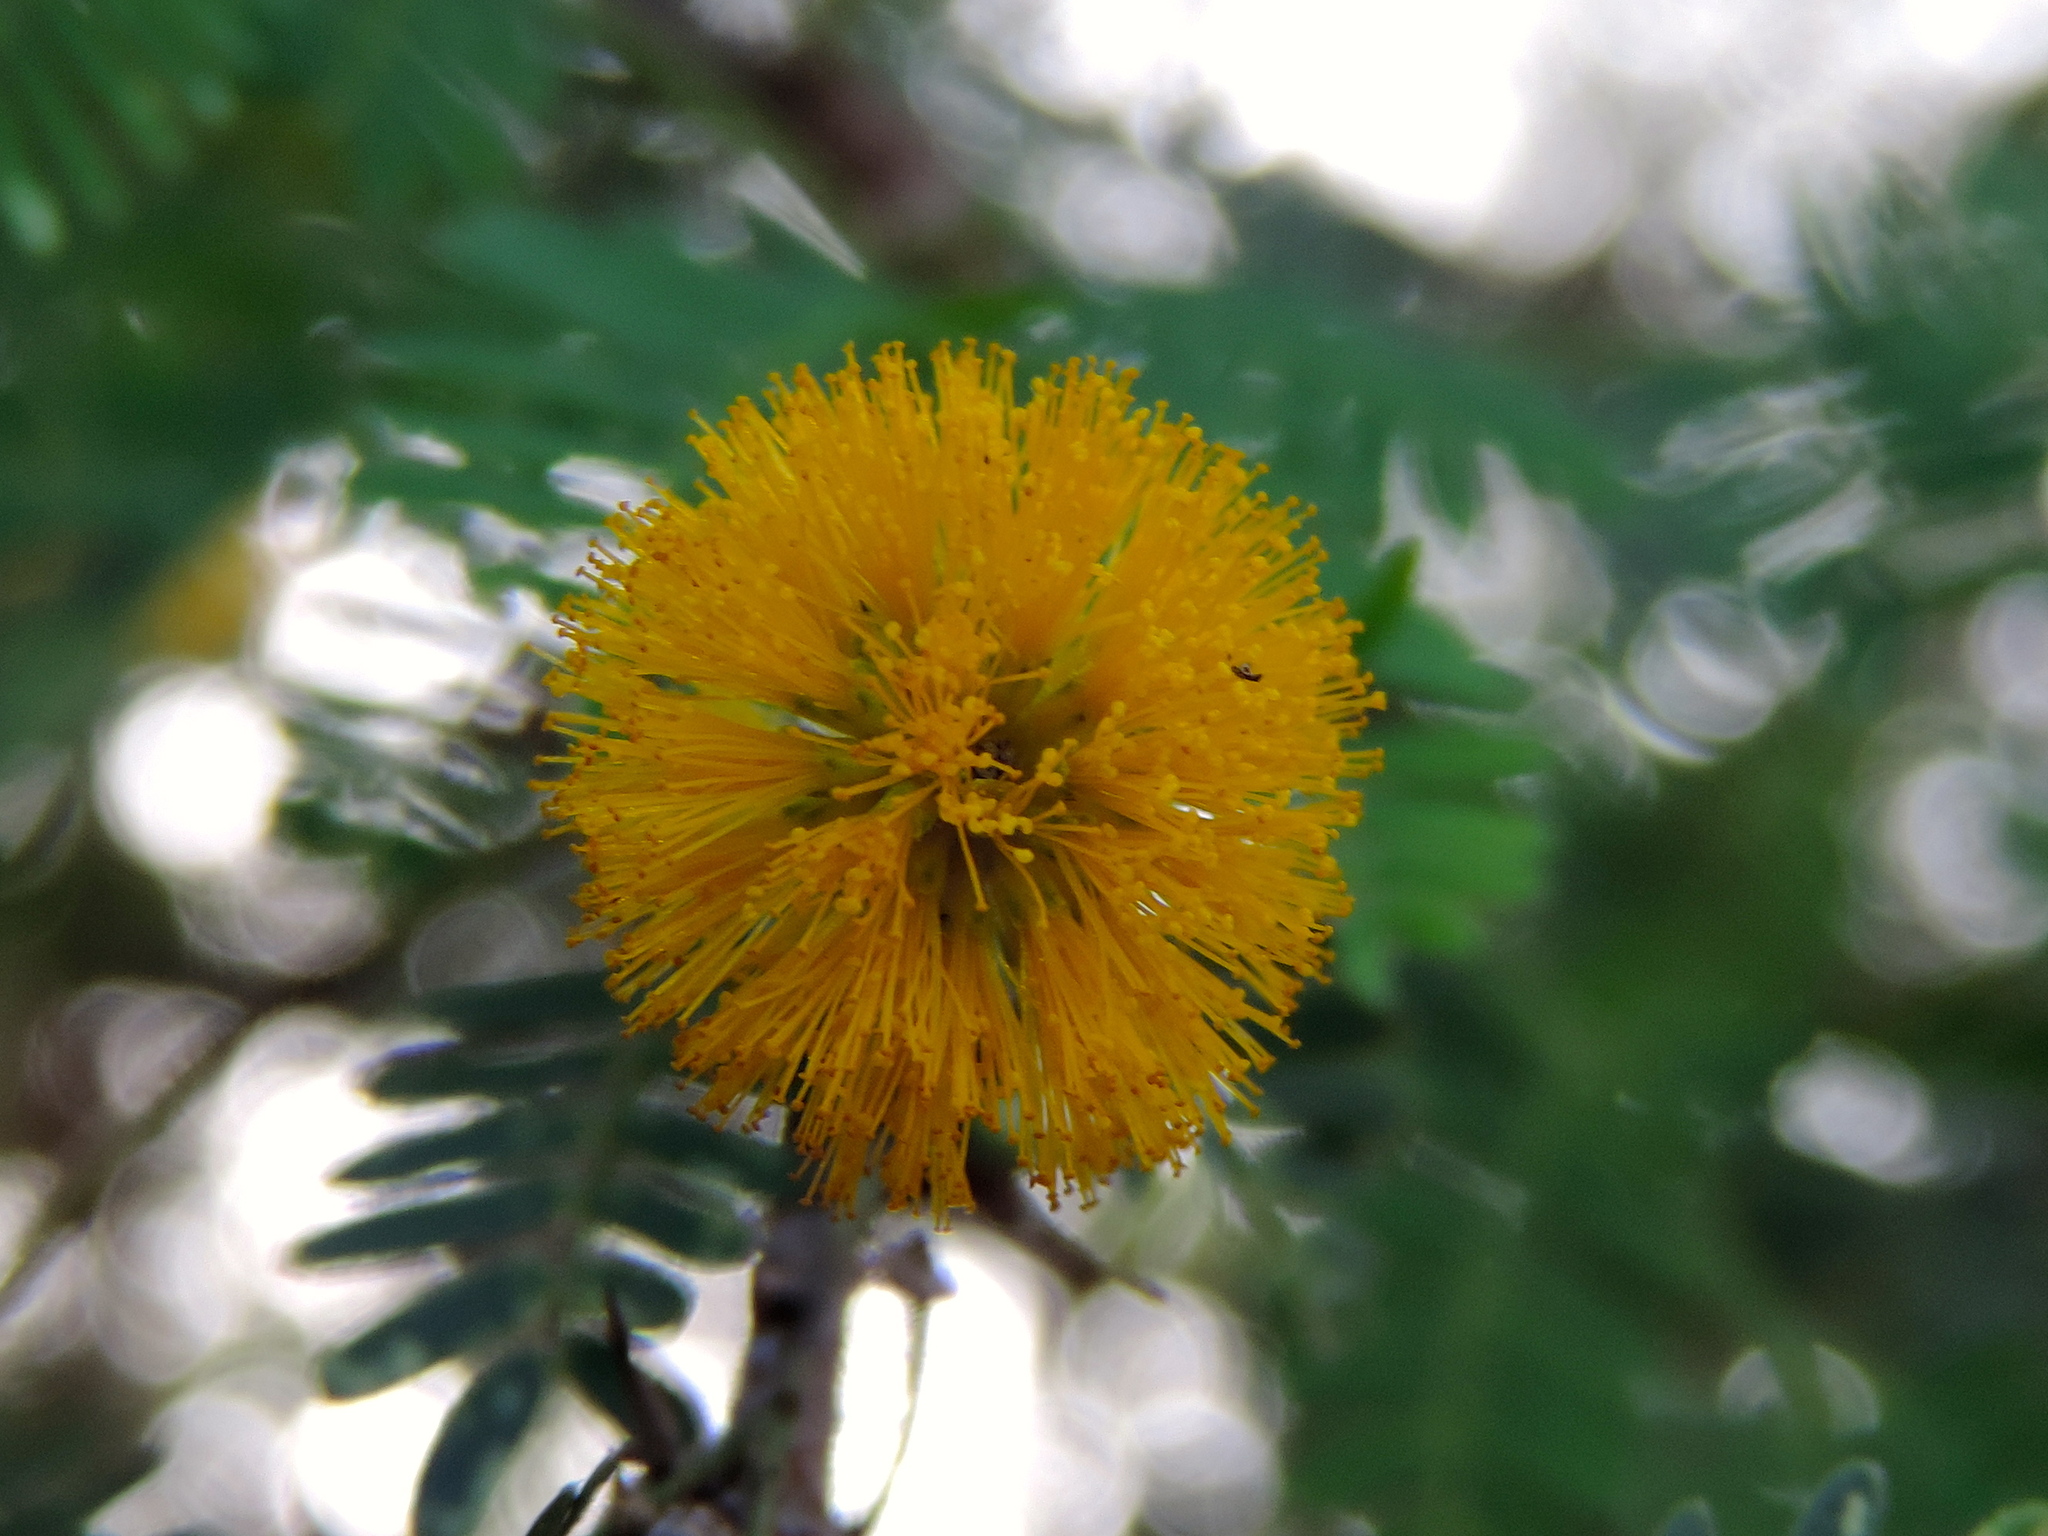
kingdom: Plantae
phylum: Tracheophyta
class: Magnoliopsida
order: Fabales
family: Fabaceae
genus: Vachellia
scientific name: Vachellia farnesiana
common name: Sweet acacia
